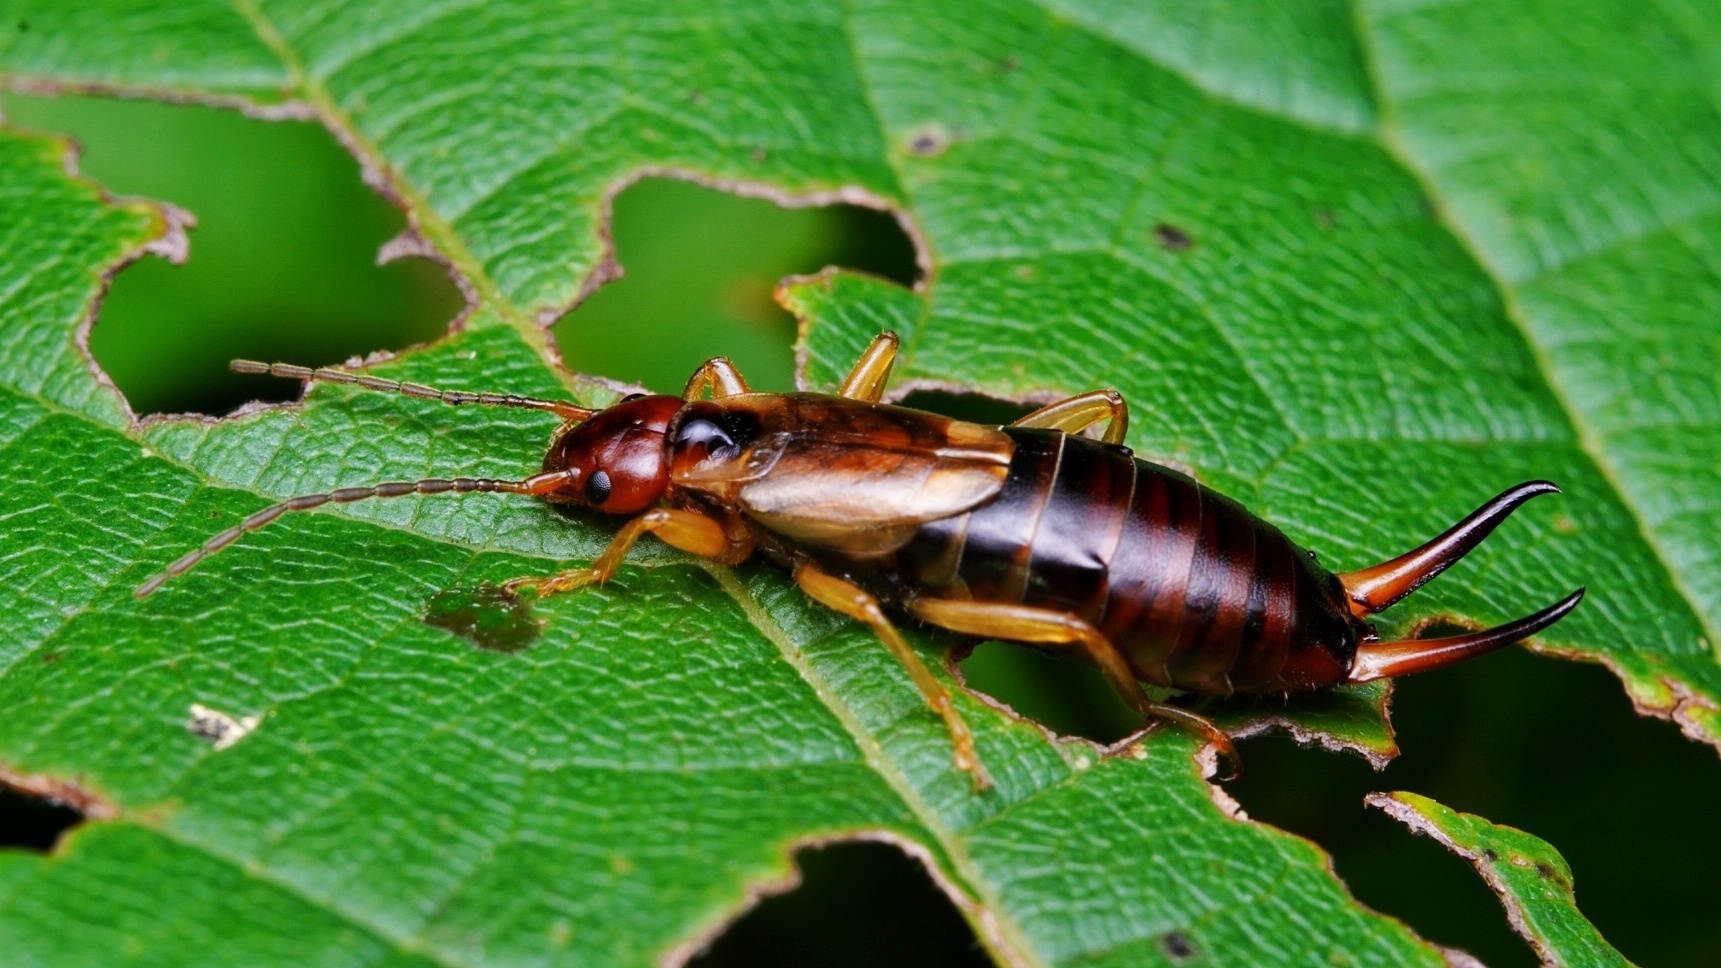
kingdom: Animalia
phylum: Arthropoda
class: Insecta
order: Dermaptera
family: Forficulidae
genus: Forficula
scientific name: Forficula
